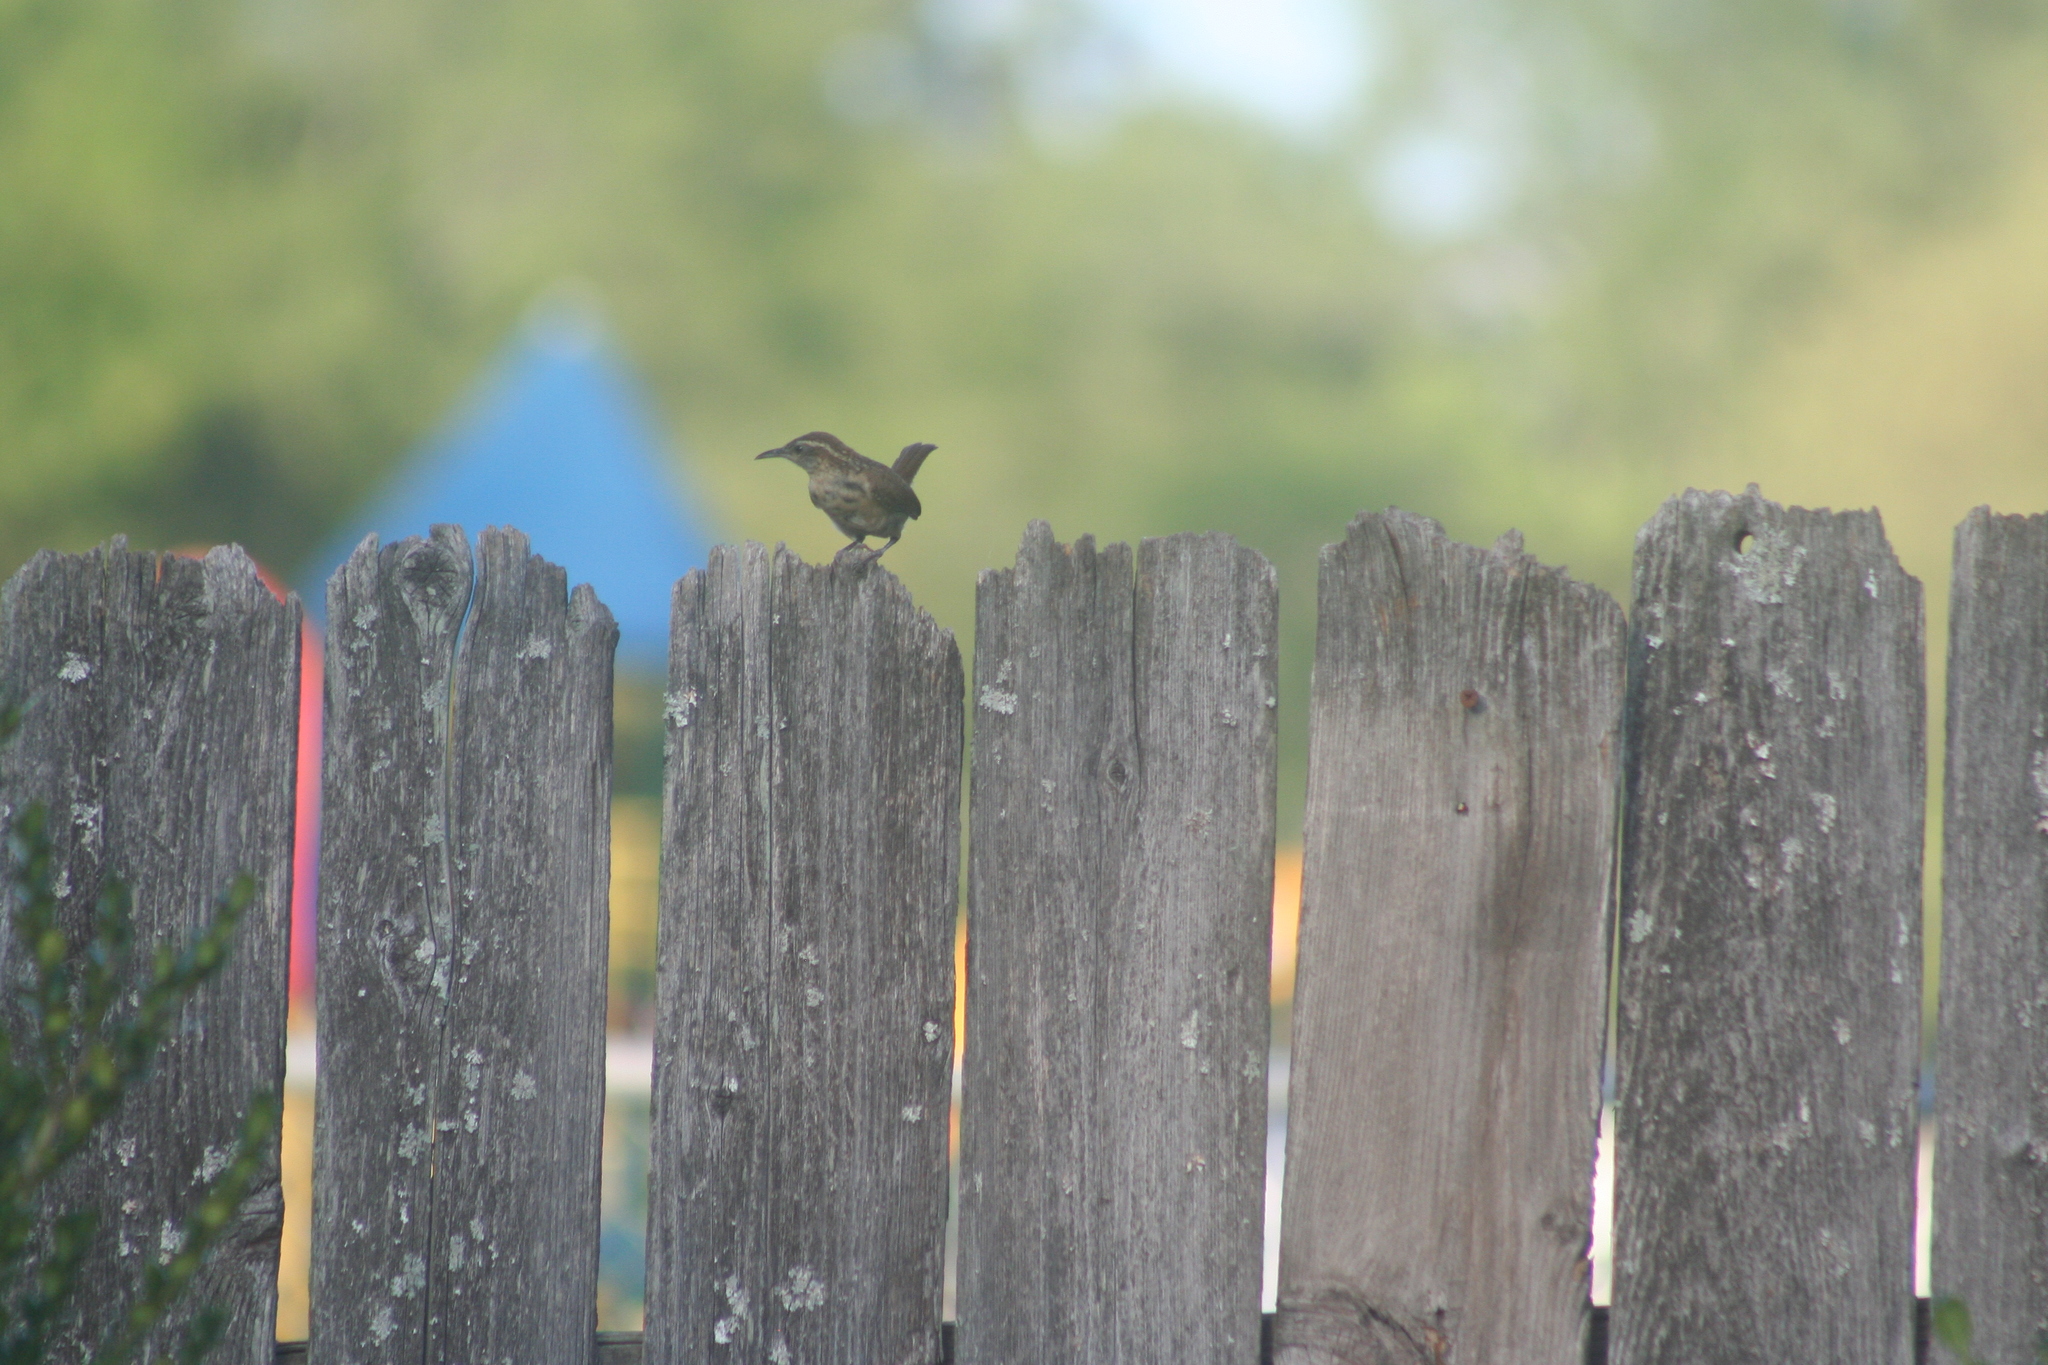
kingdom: Animalia
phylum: Chordata
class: Aves
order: Passeriformes
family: Troglodytidae
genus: Thryothorus
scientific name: Thryothorus ludovicianus
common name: Carolina wren
